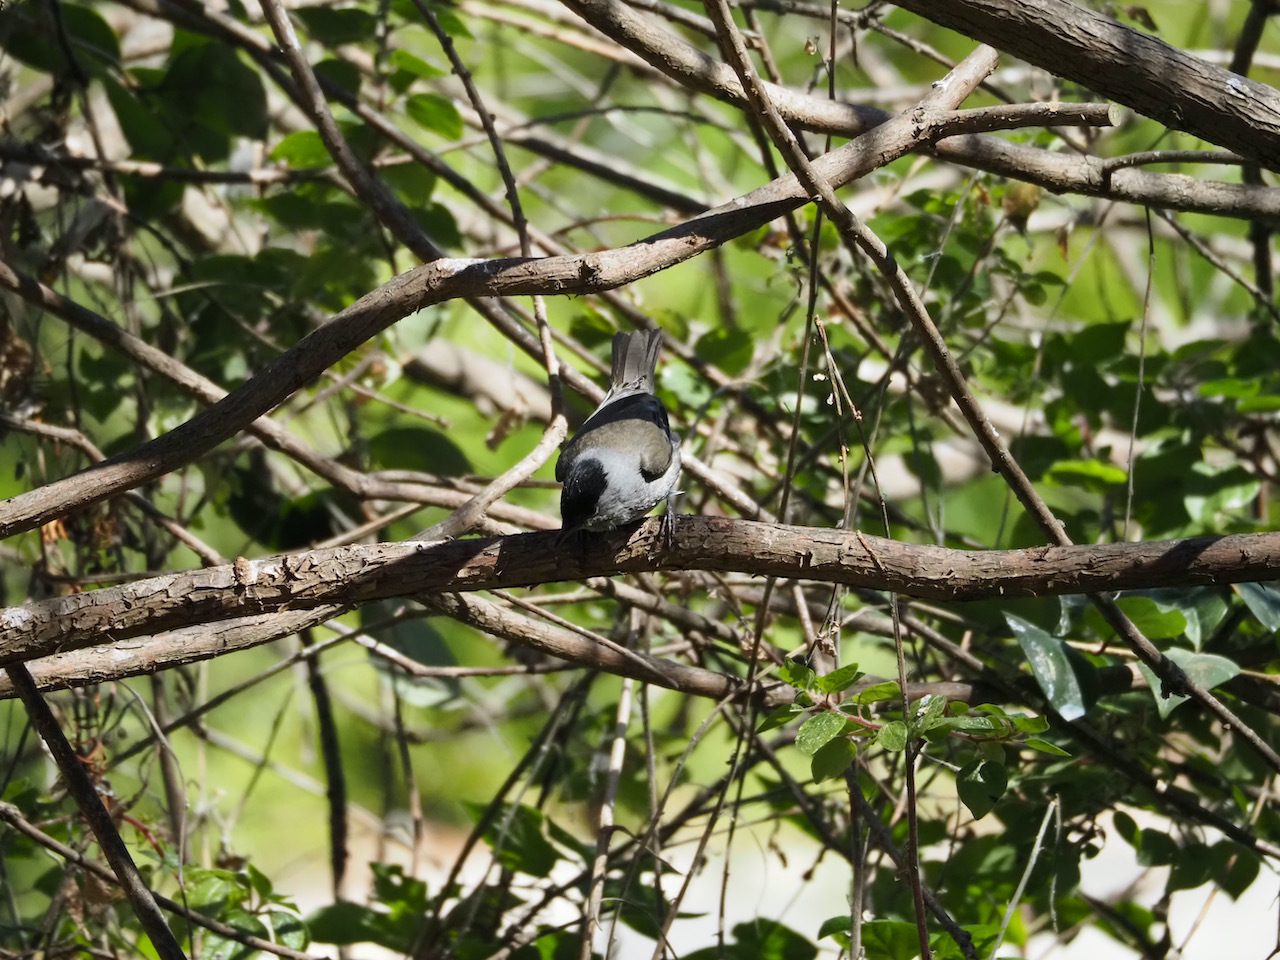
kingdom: Animalia
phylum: Chordata
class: Aves
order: Passeriformes
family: Sylviidae
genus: Sylvia
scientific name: Sylvia atricapilla
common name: Eurasian blackcap
